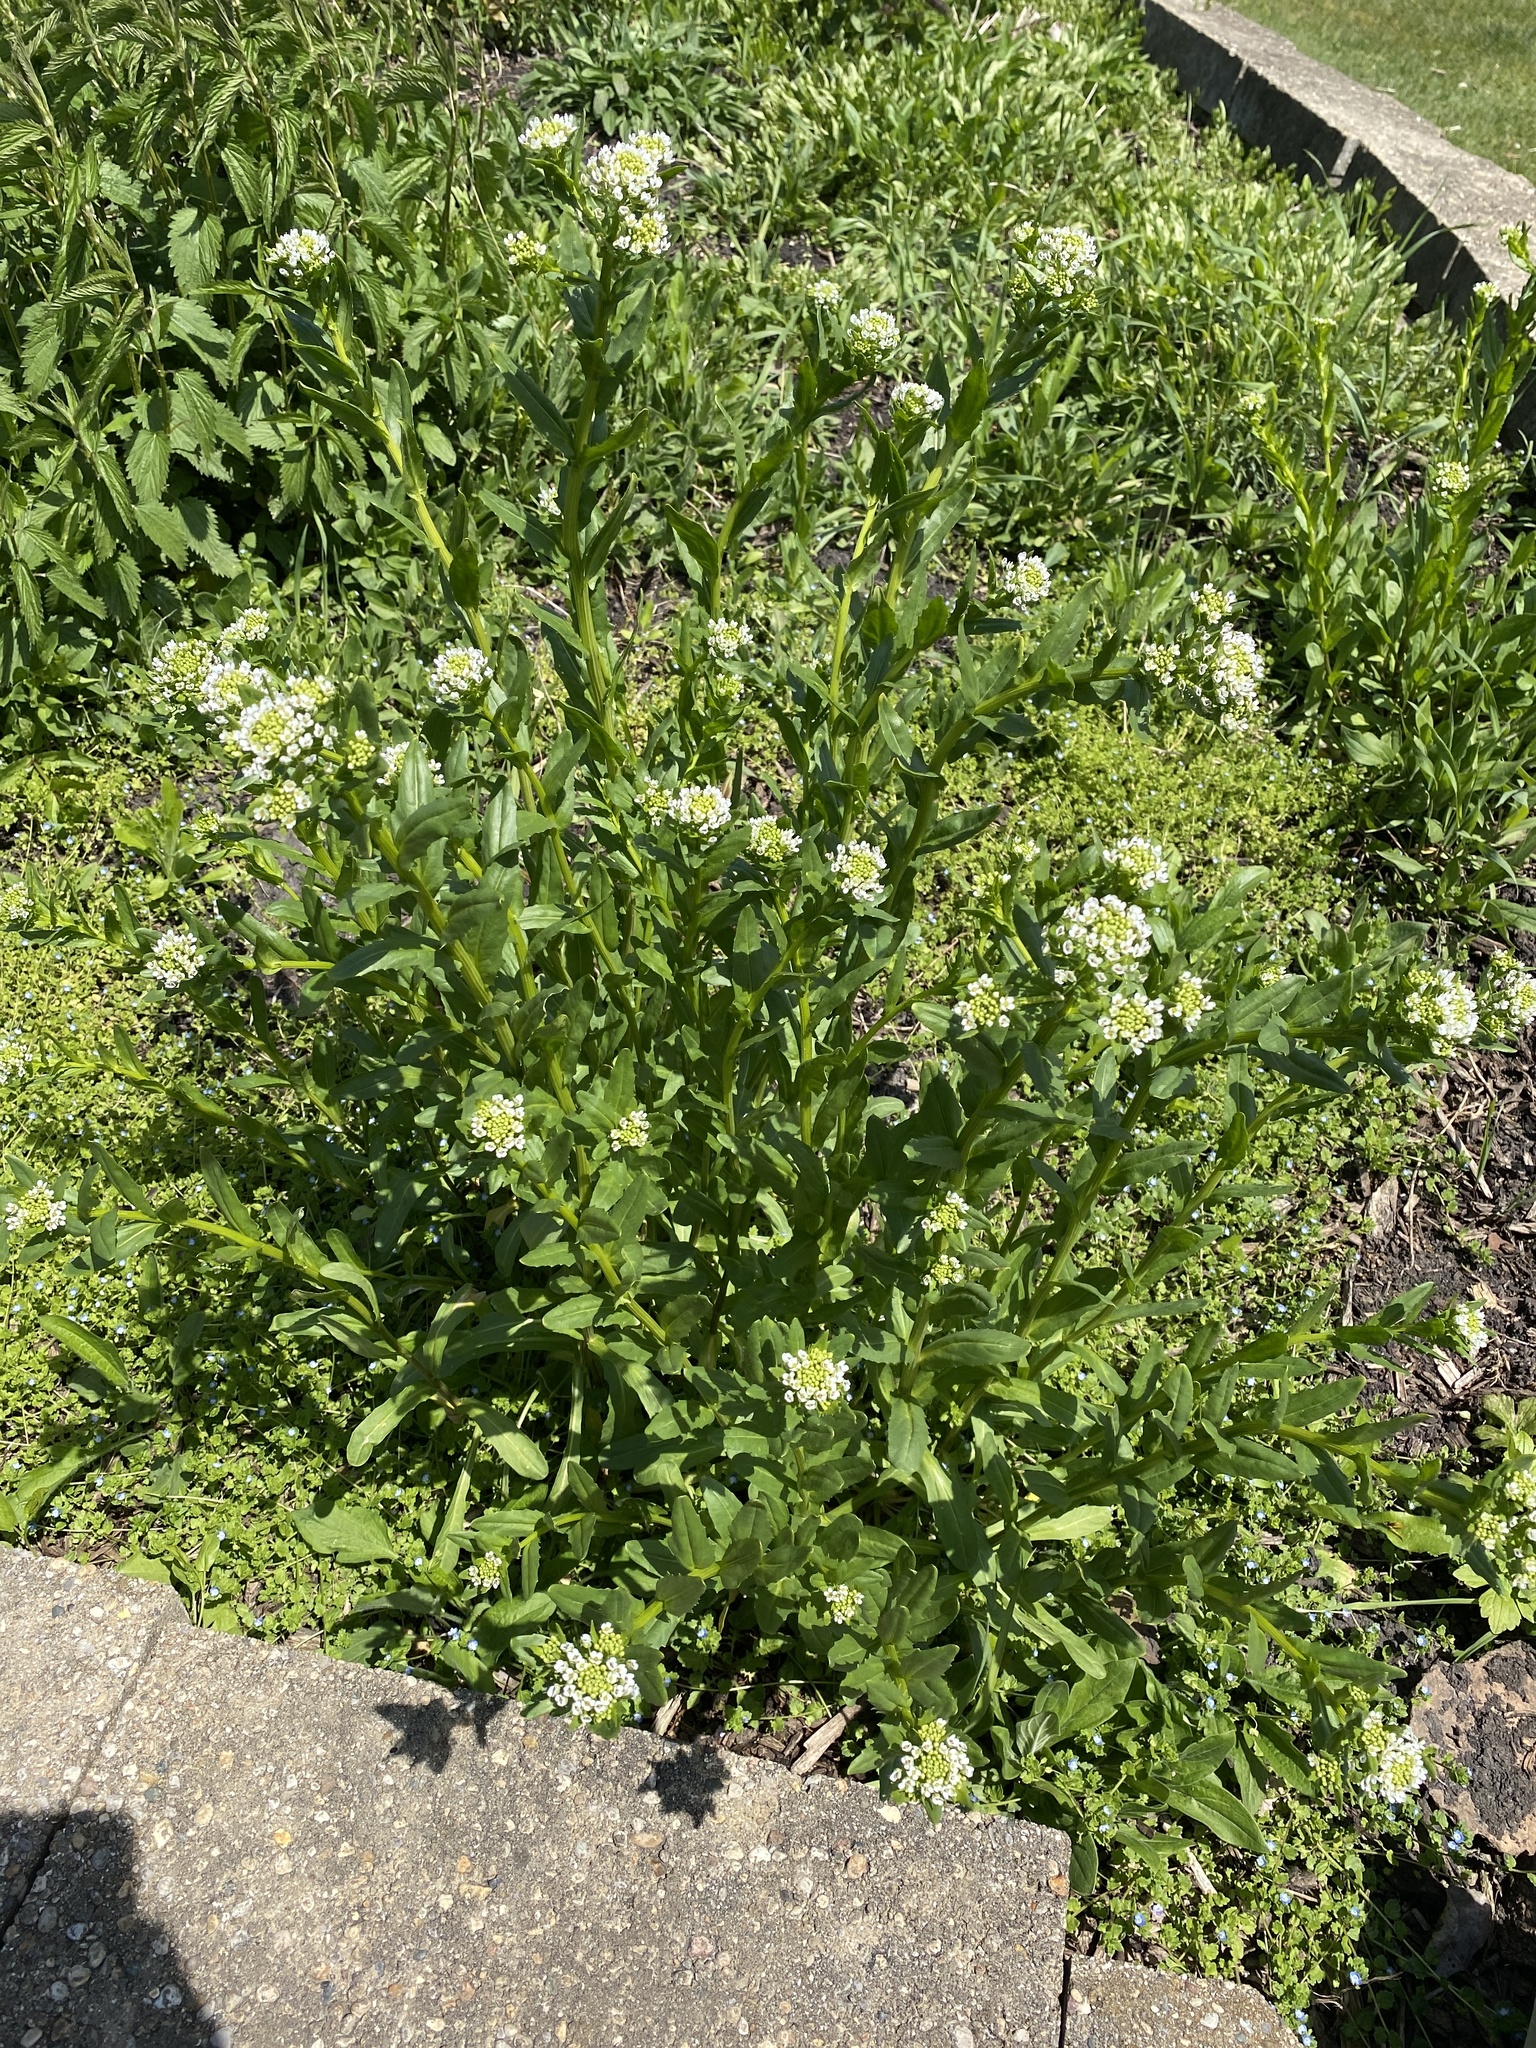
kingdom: Plantae
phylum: Tracheophyta
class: Magnoliopsida
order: Brassicales
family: Brassicaceae
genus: Thlaspi
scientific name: Thlaspi arvense
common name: Field pennycress
